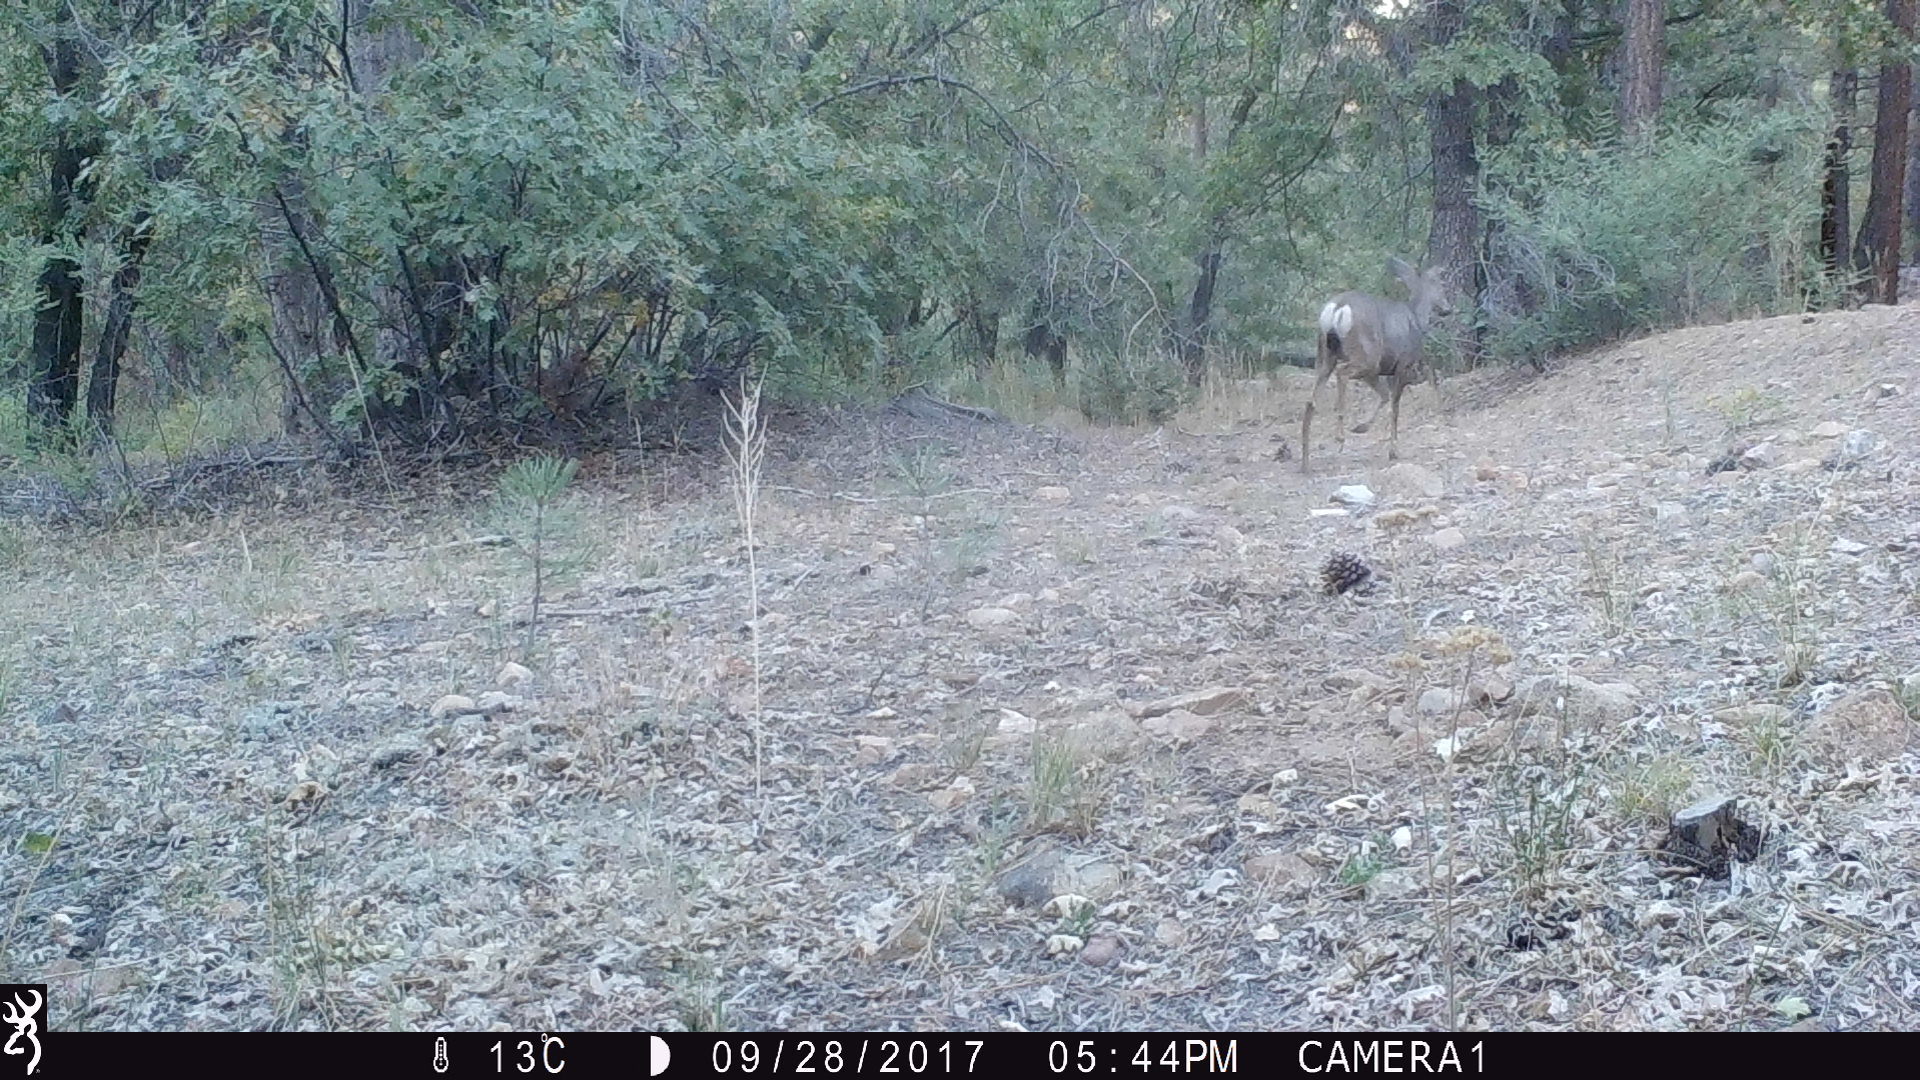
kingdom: Animalia
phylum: Chordata
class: Mammalia
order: Artiodactyla
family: Cervidae
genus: Odocoileus
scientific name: Odocoileus hemionus
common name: Mule deer
